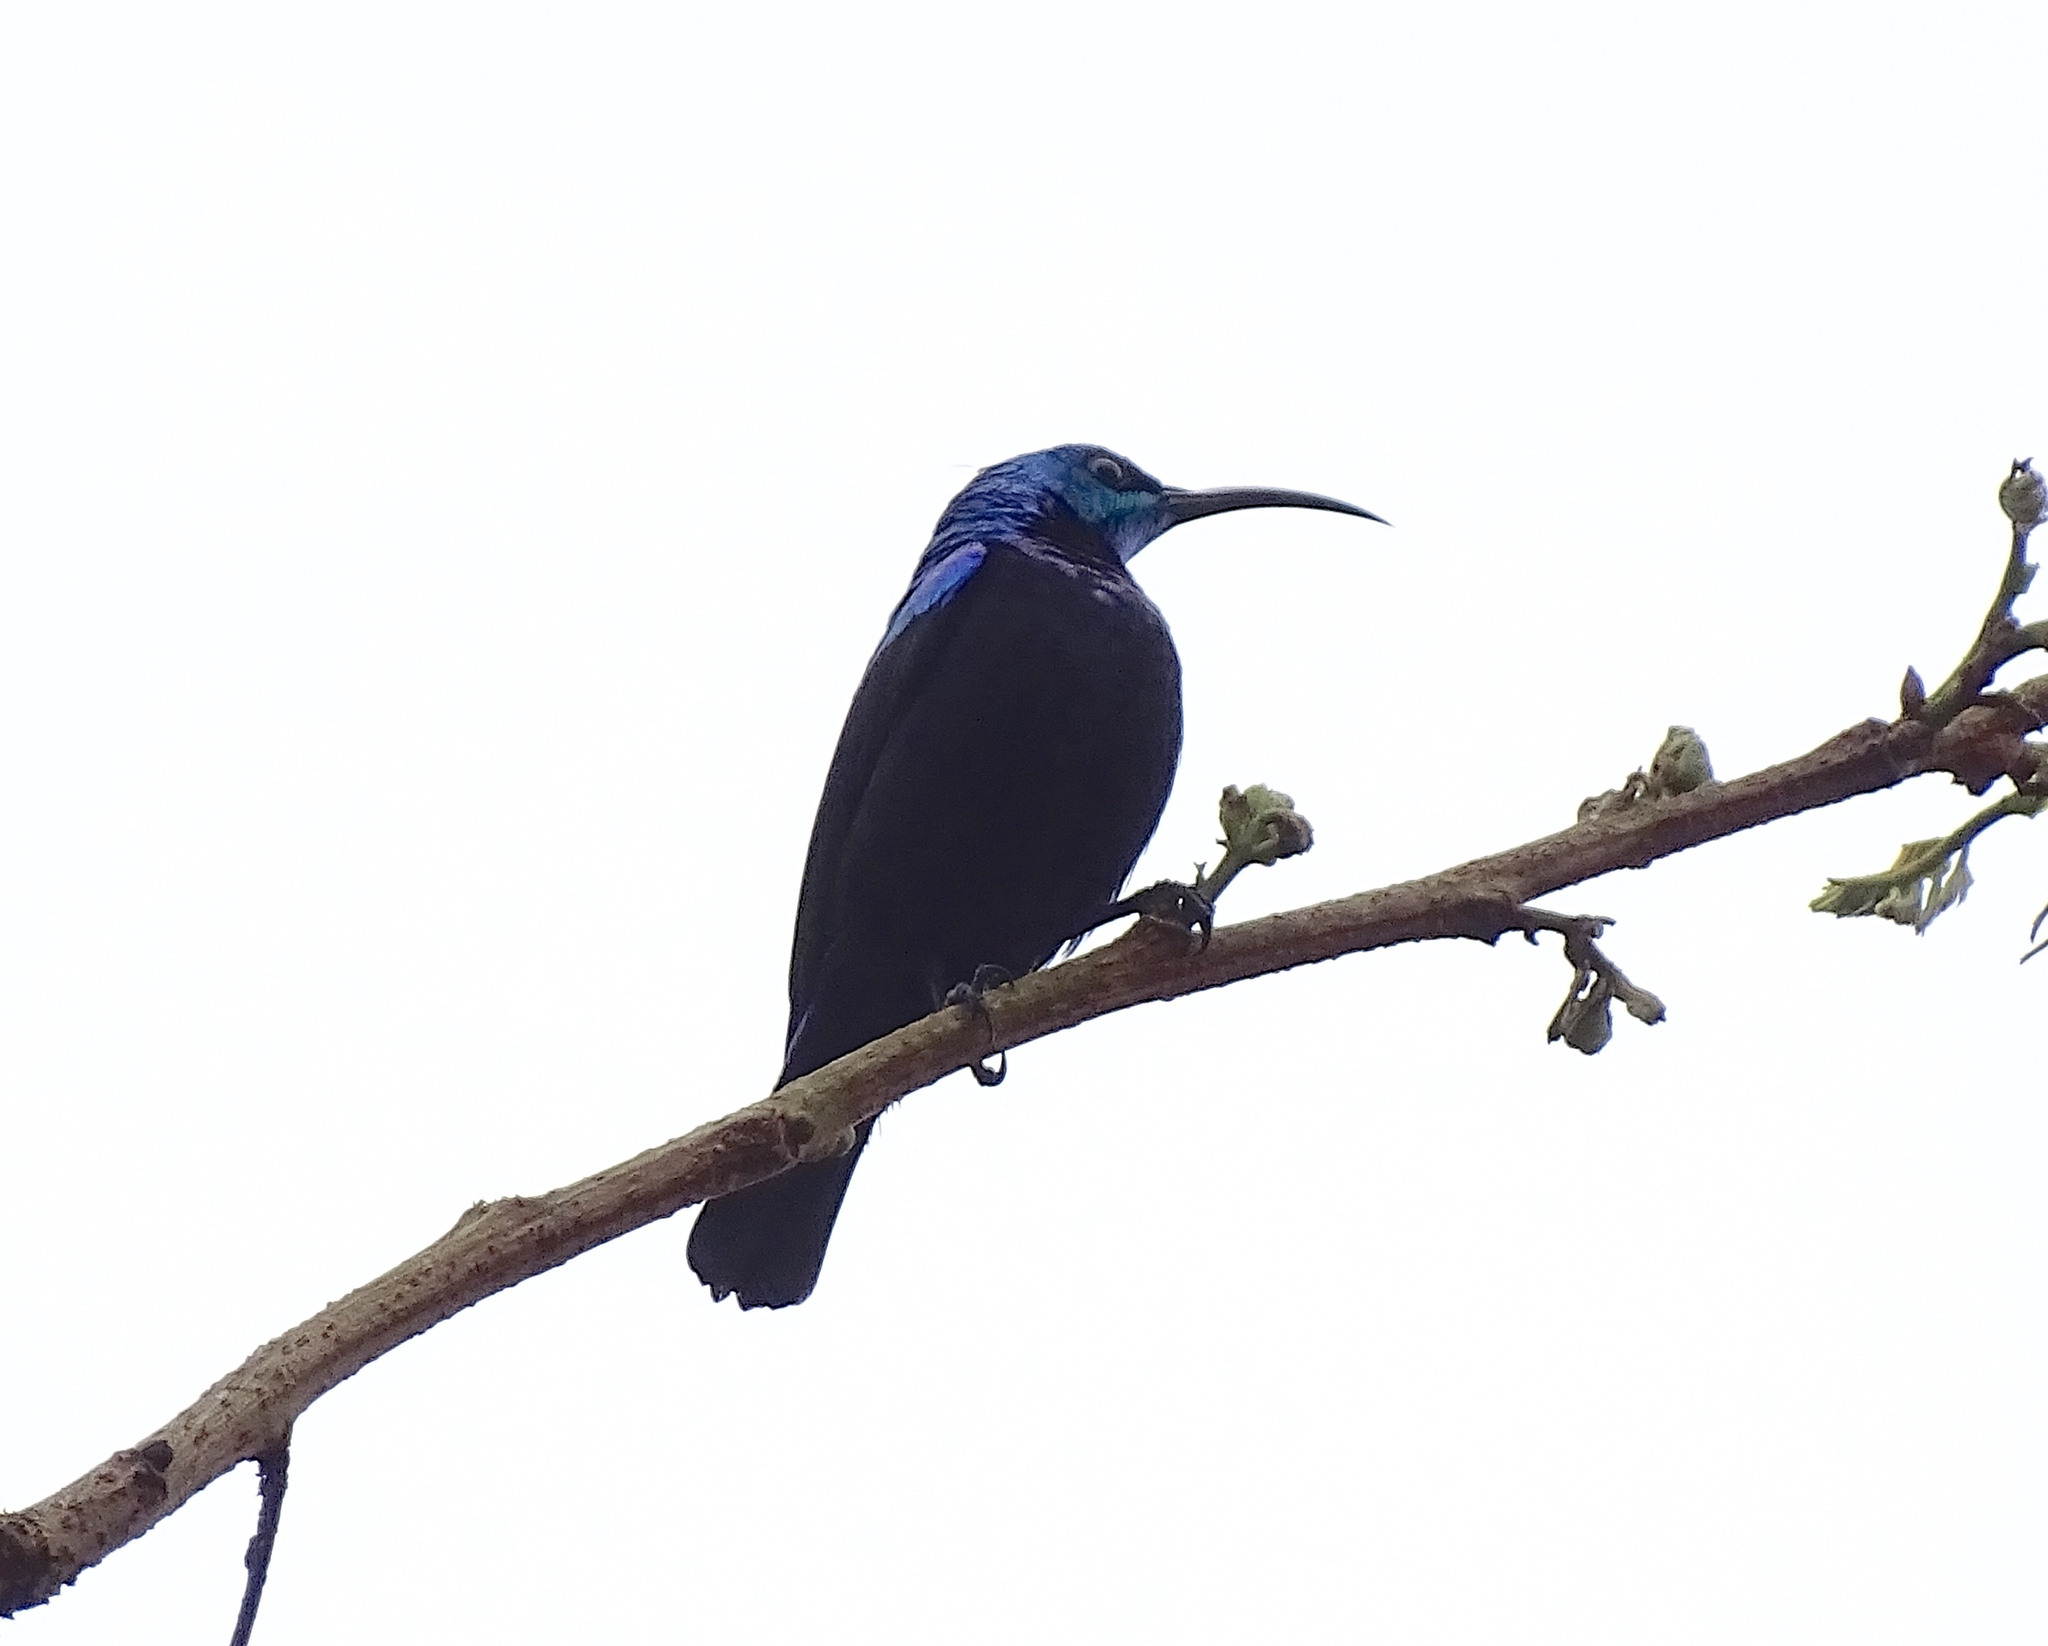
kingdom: Animalia
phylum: Chordata
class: Aves
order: Passeriformes
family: Nectariniidae
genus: Cinnyris
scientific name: Cinnyris notatus
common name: Malagasy green sunbird
